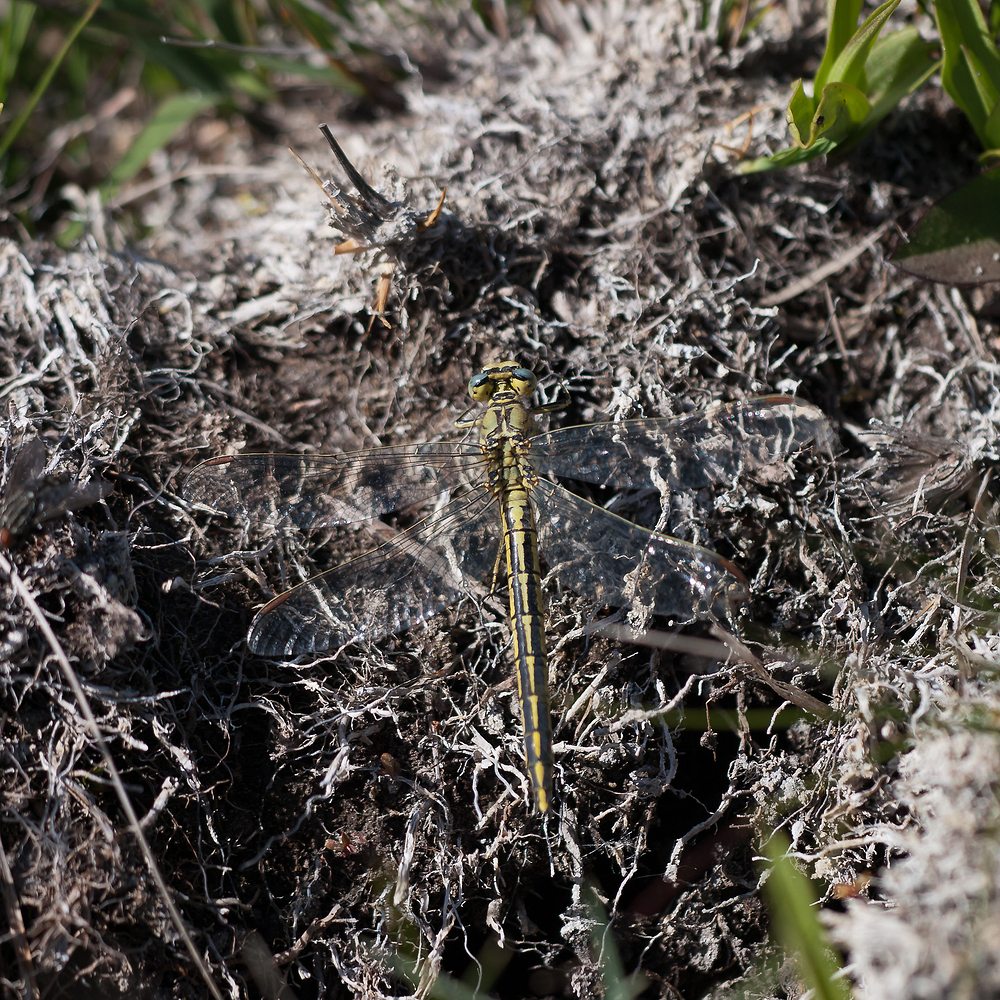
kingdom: Animalia
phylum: Arthropoda
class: Insecta
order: Odonata
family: Gomphidae
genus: Gomphus
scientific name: Gomphus pulchellus
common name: Western clubtail
